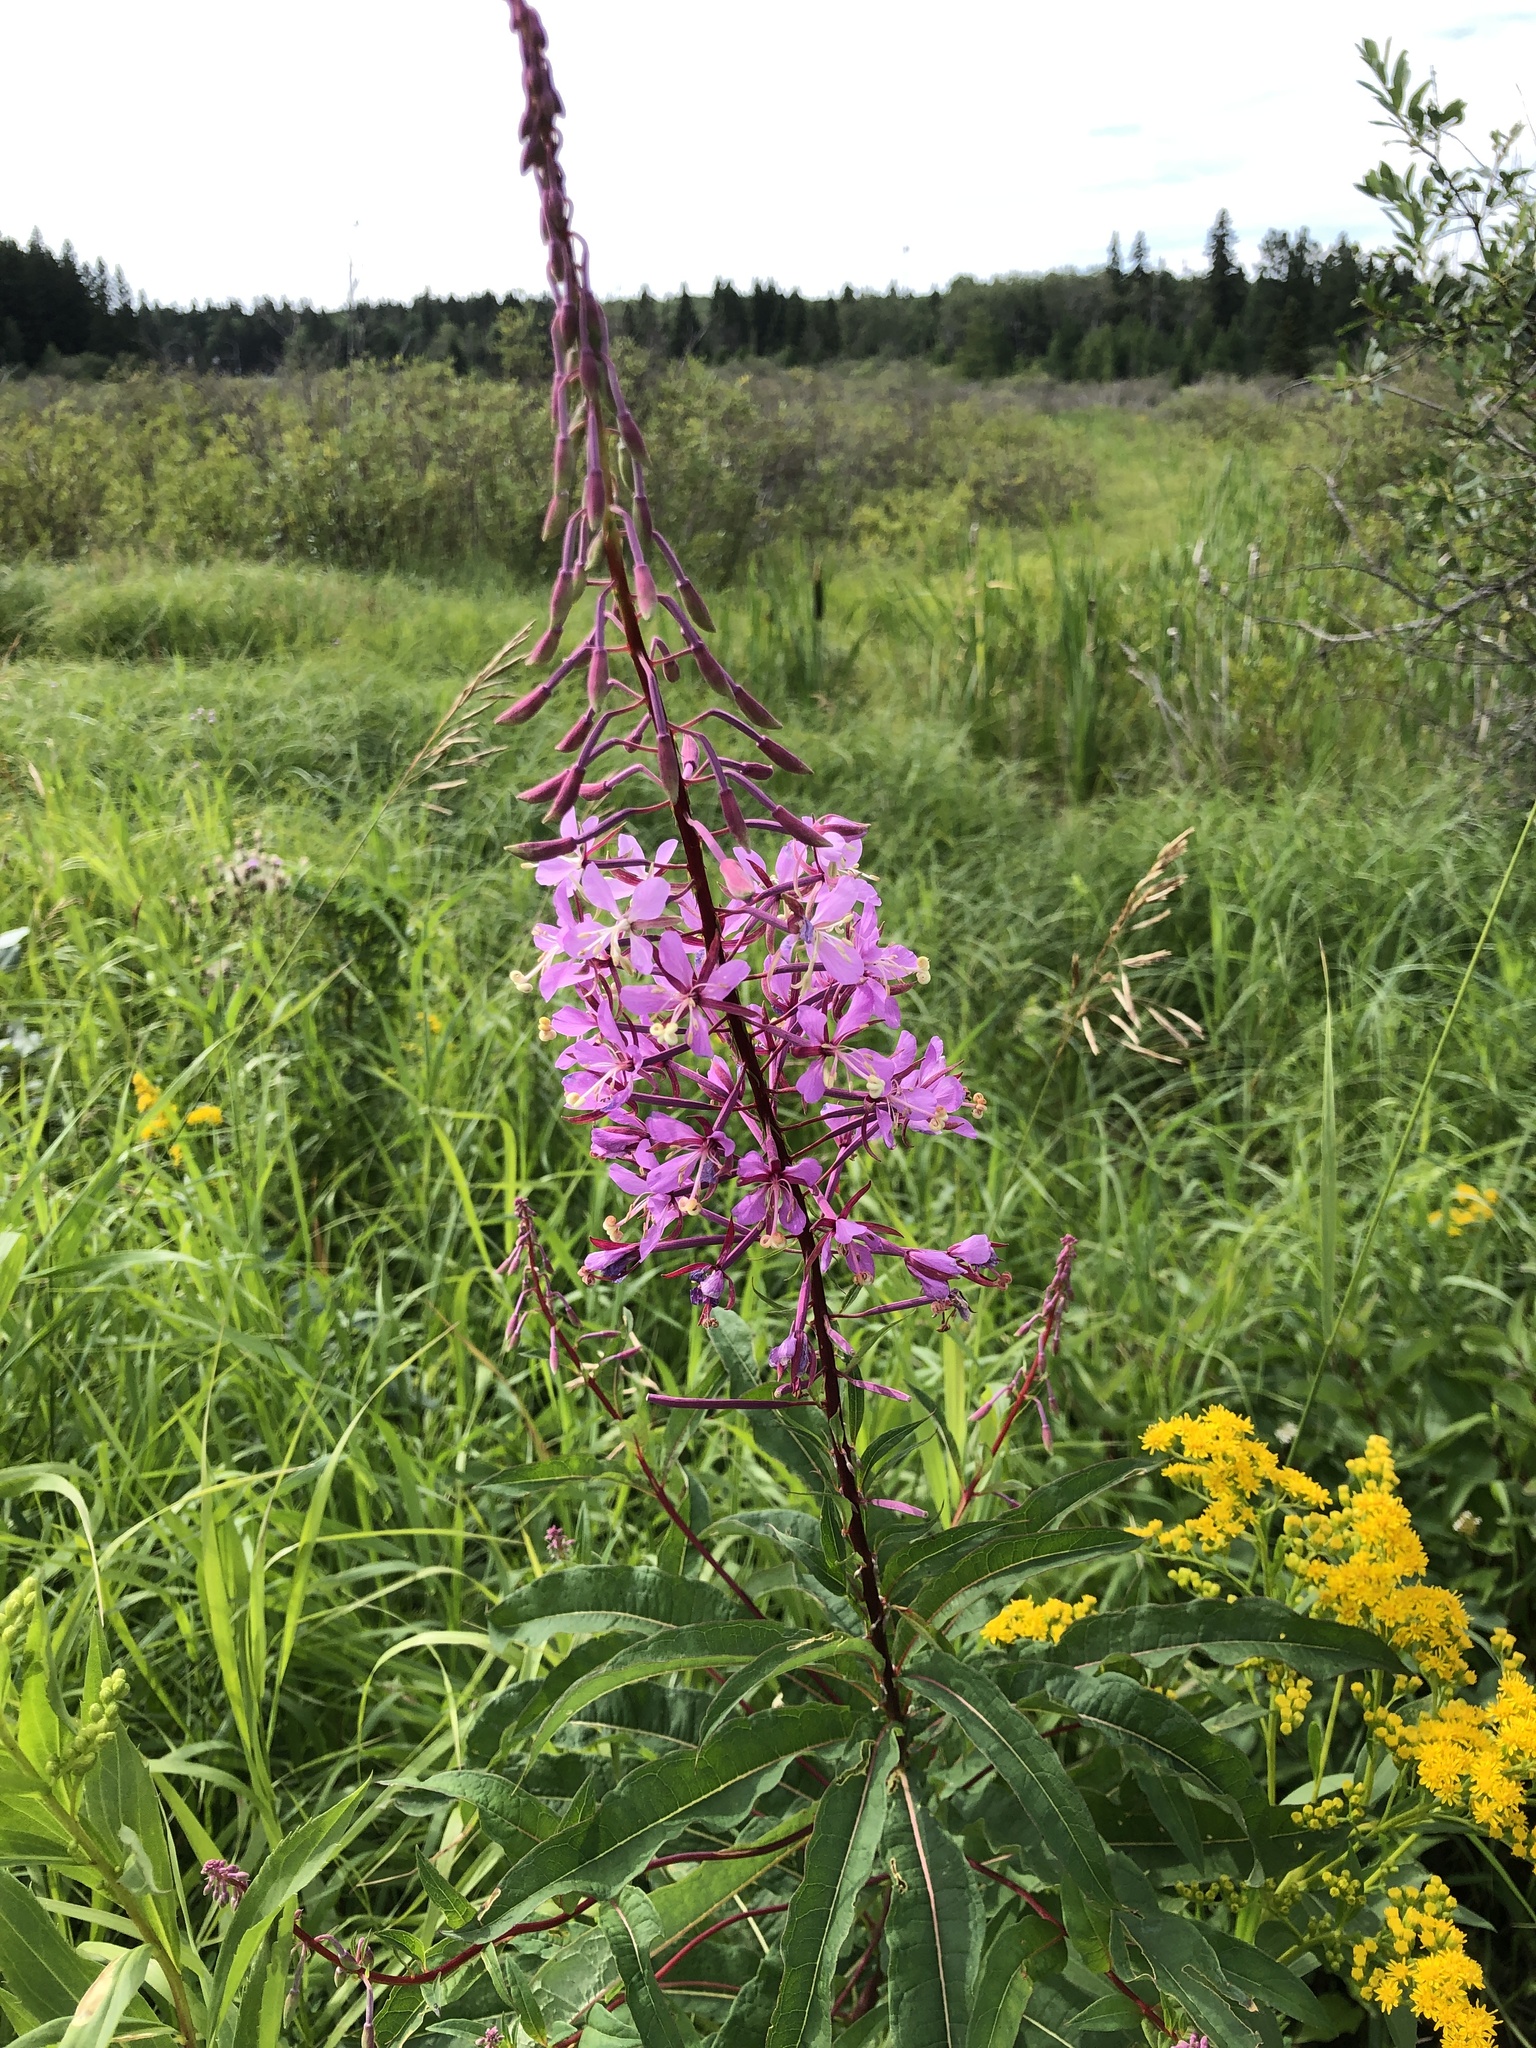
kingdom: Plantae
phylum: Tracheophyta
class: Magnoliopsida
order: Myrtales
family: Onagraceae
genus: Chamaenerion
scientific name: Chamaenerion angustifolium
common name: Fireweed
